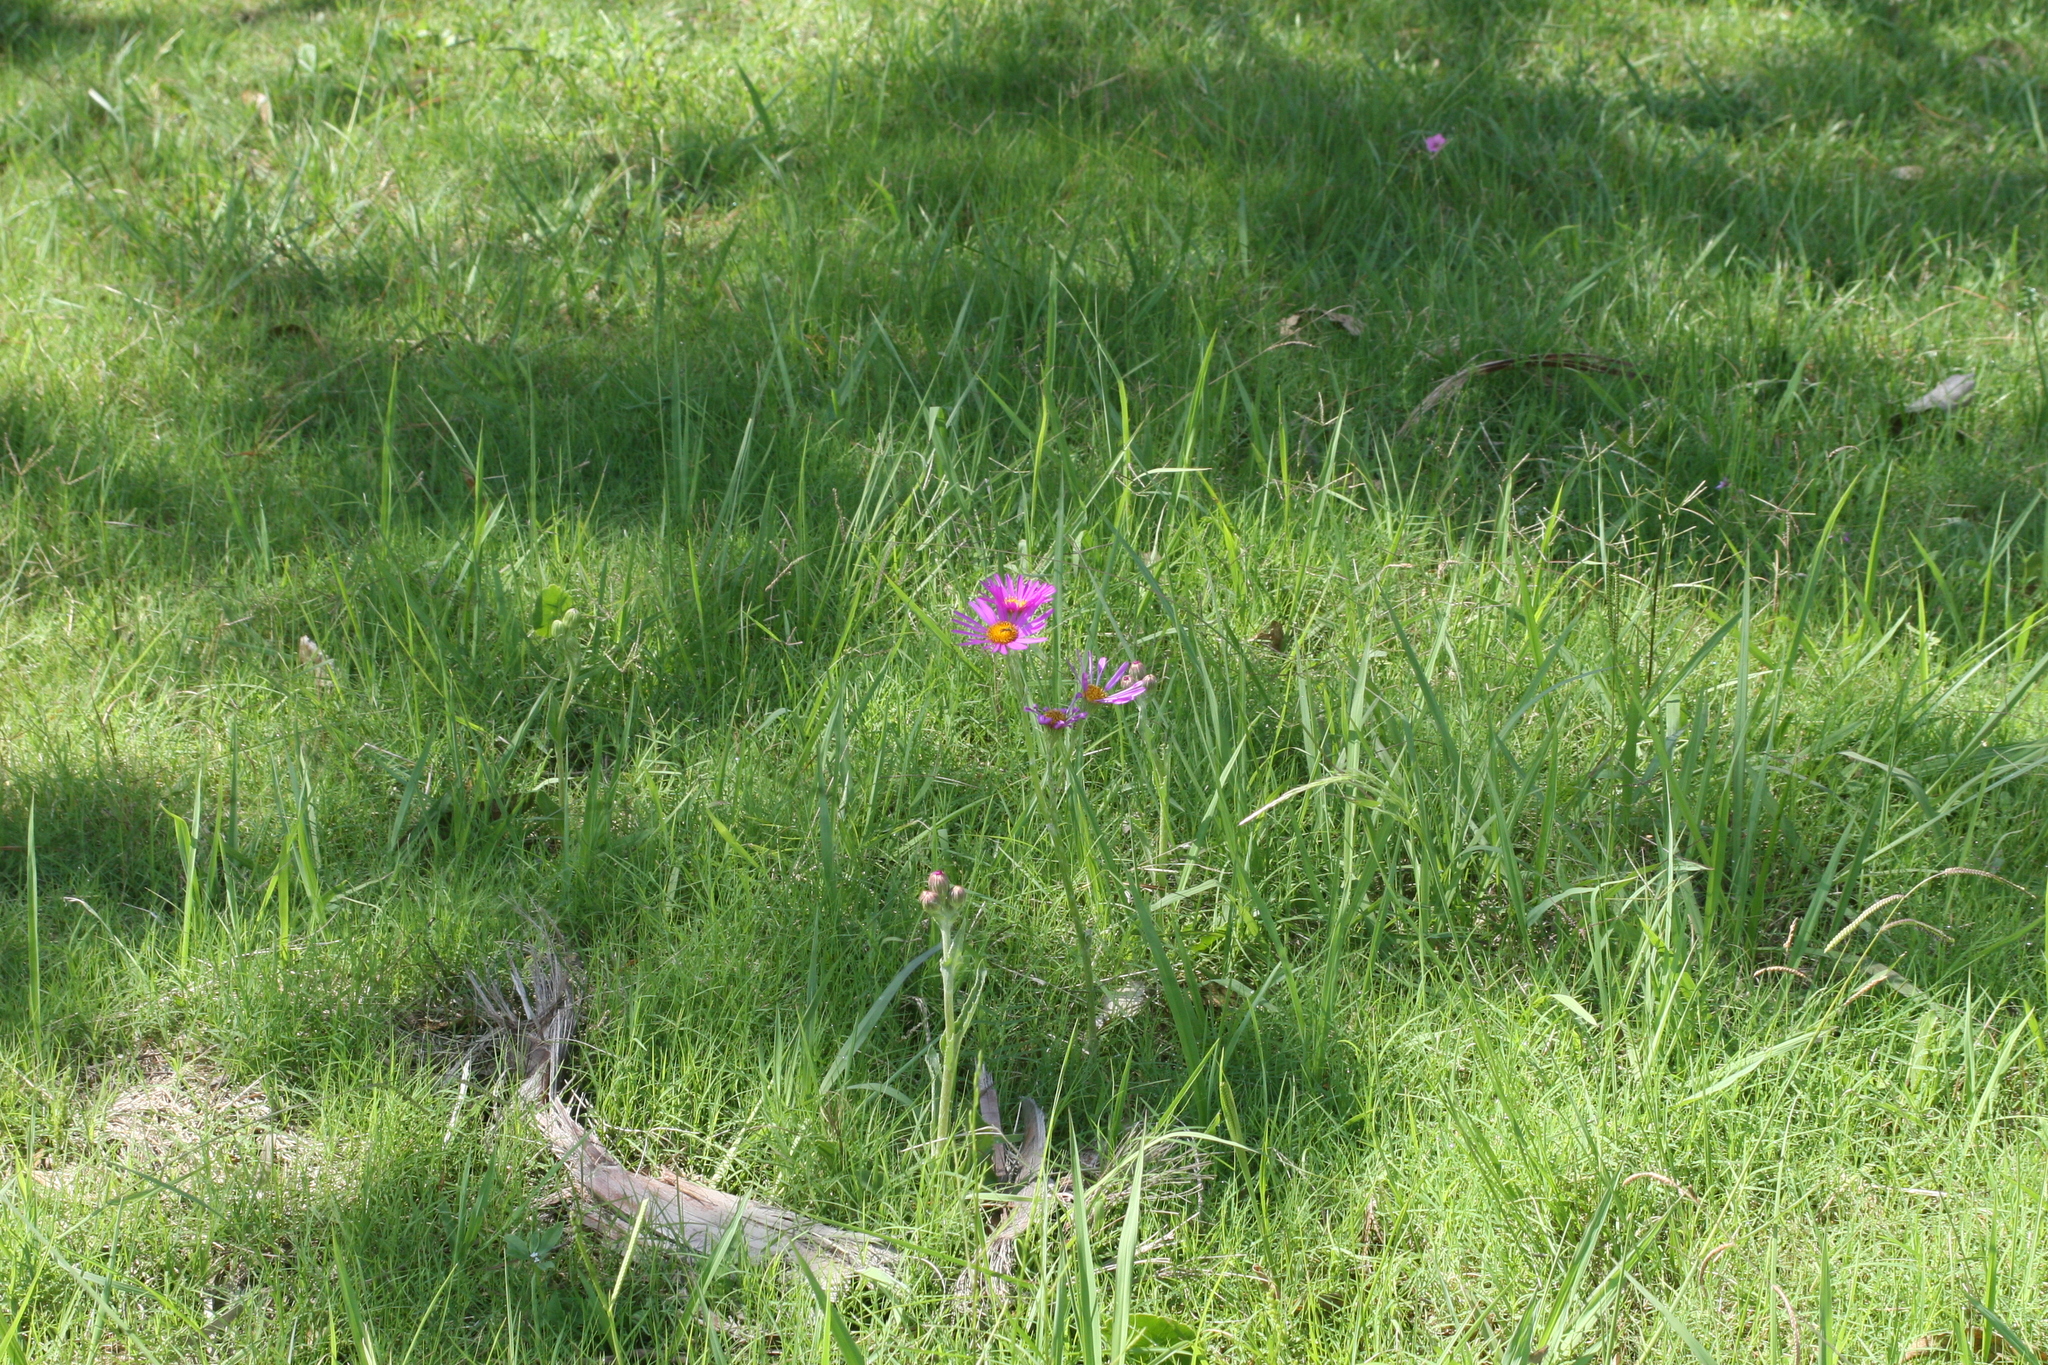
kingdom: Plantae
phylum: Tracheophyta
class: Magnoliopsida
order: Asterales
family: Asteraceae
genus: Senecio
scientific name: Senecio pulcher
